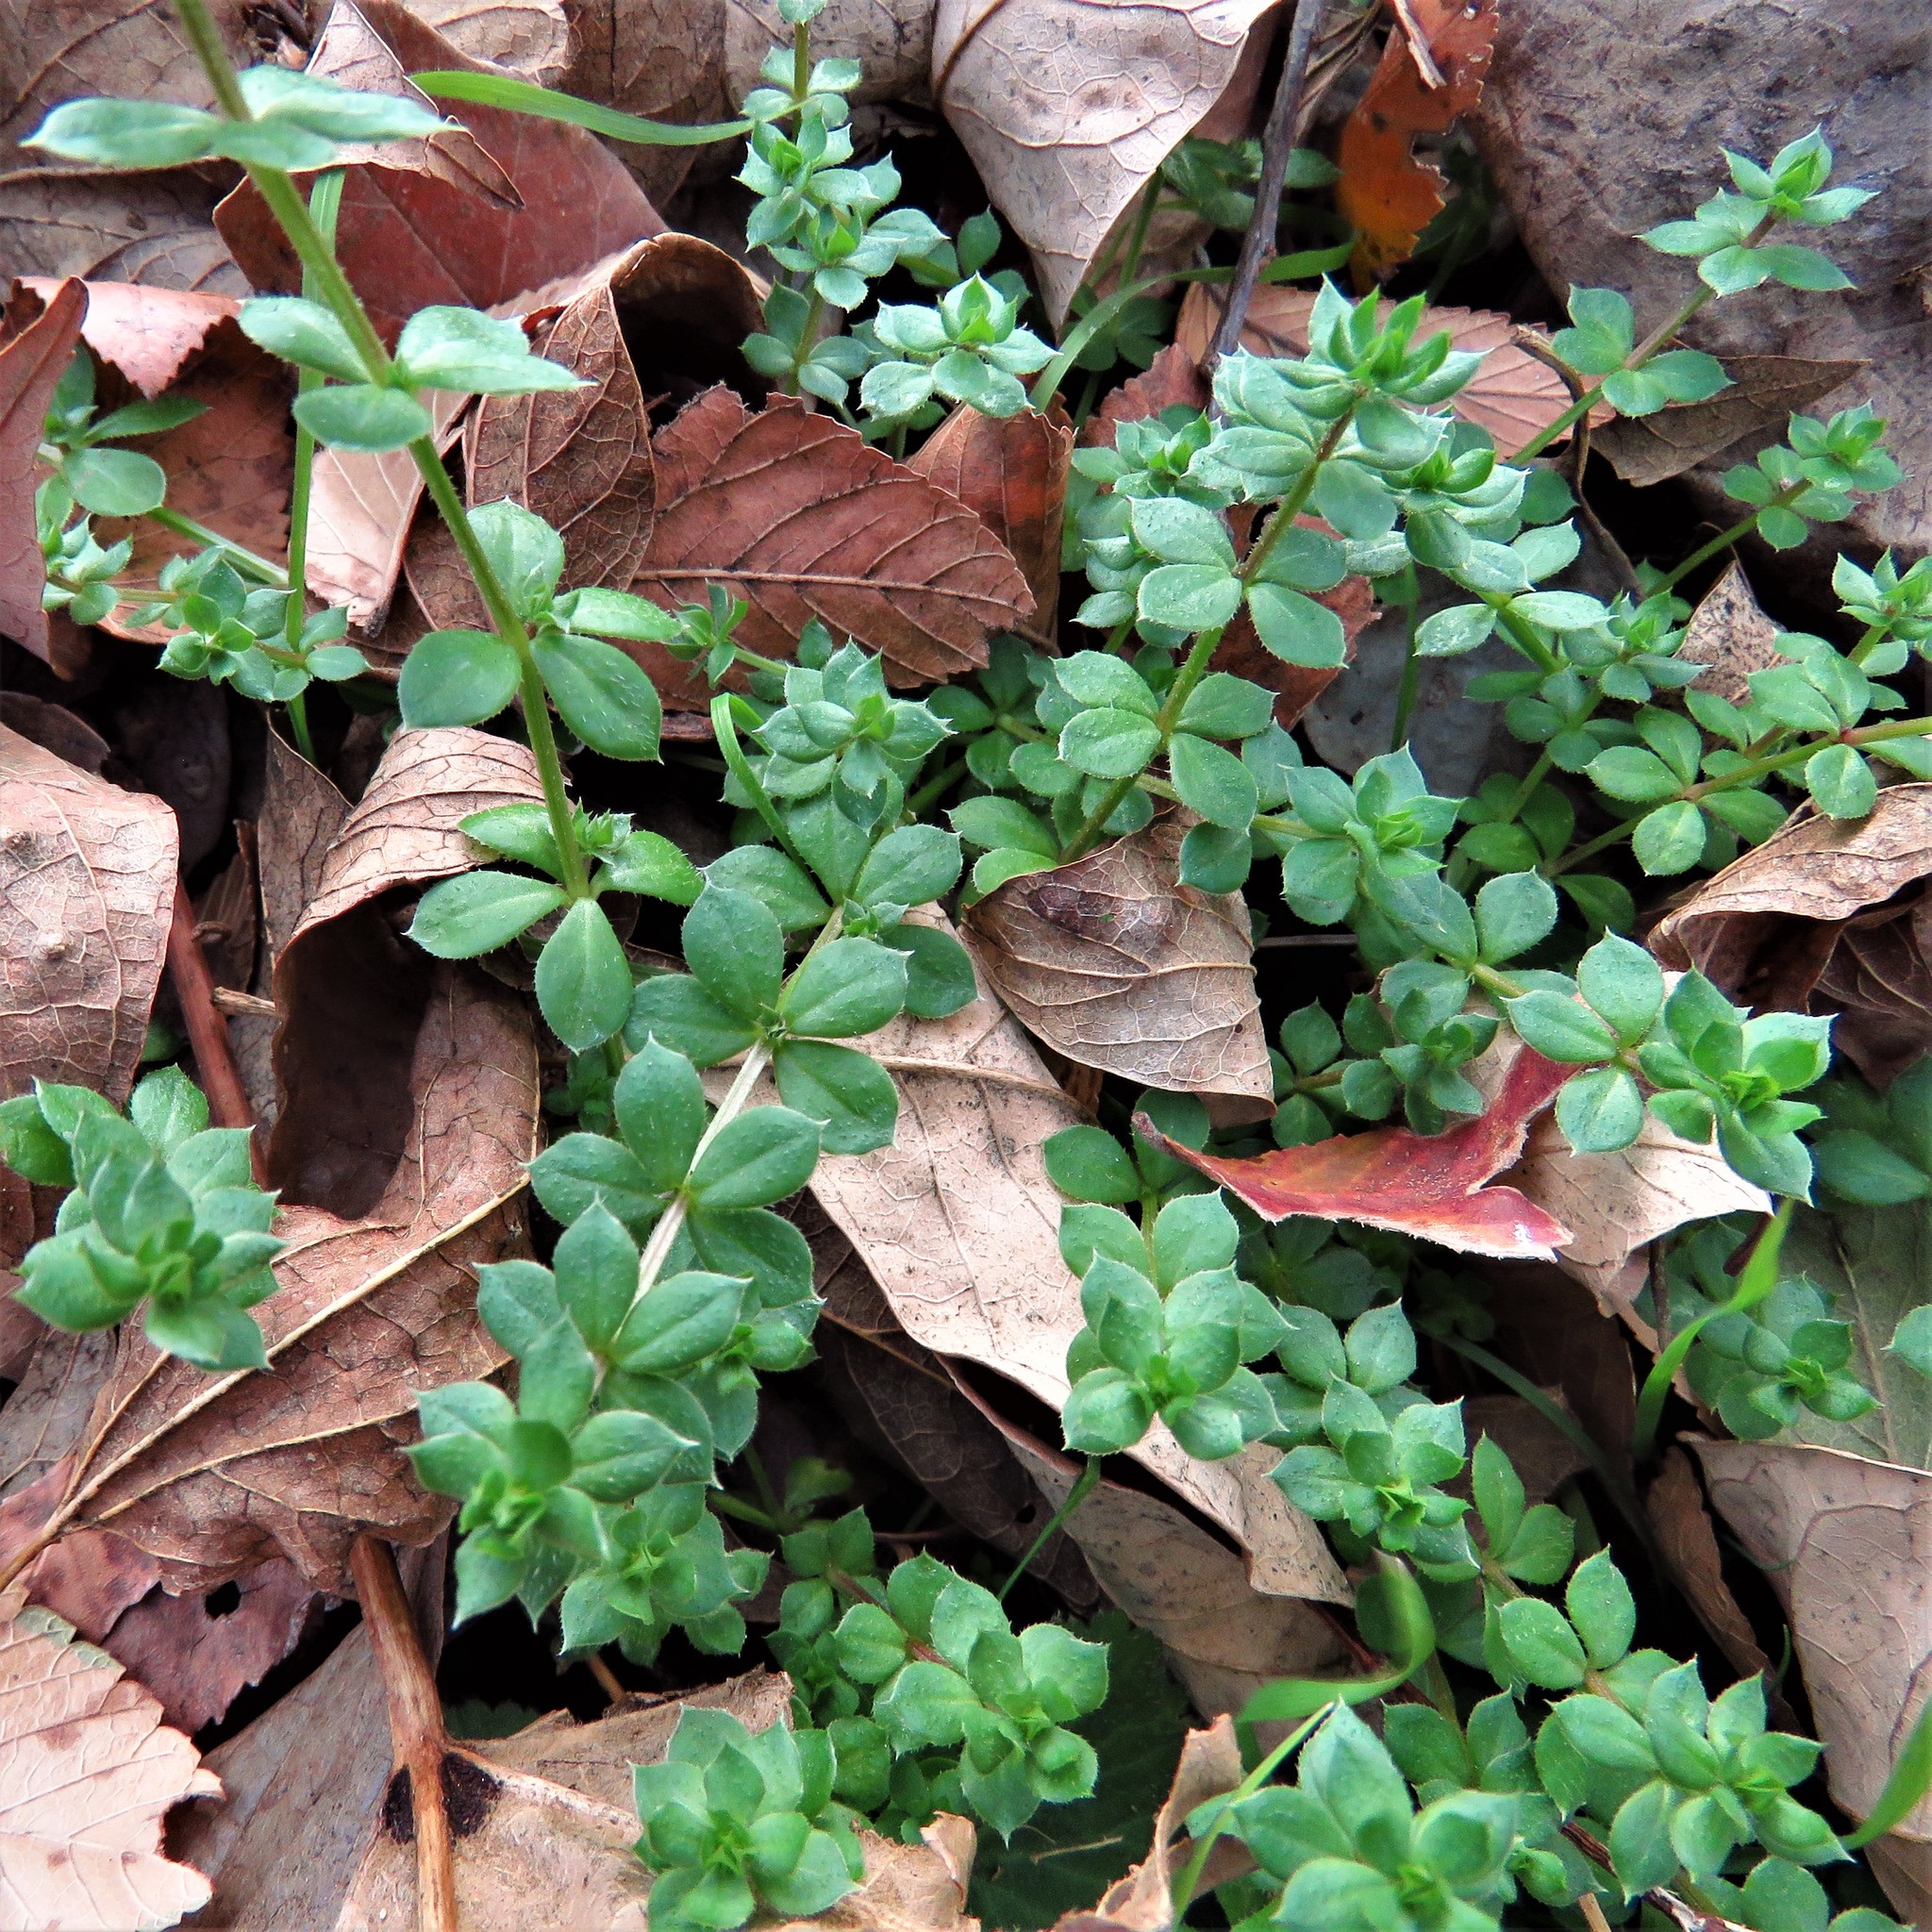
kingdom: Plantae
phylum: Tracheophyta
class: Magnoliopsida
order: Gentianales
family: Rubiaceae
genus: Sherardia
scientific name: Sherardia arvensis
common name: Field madder
